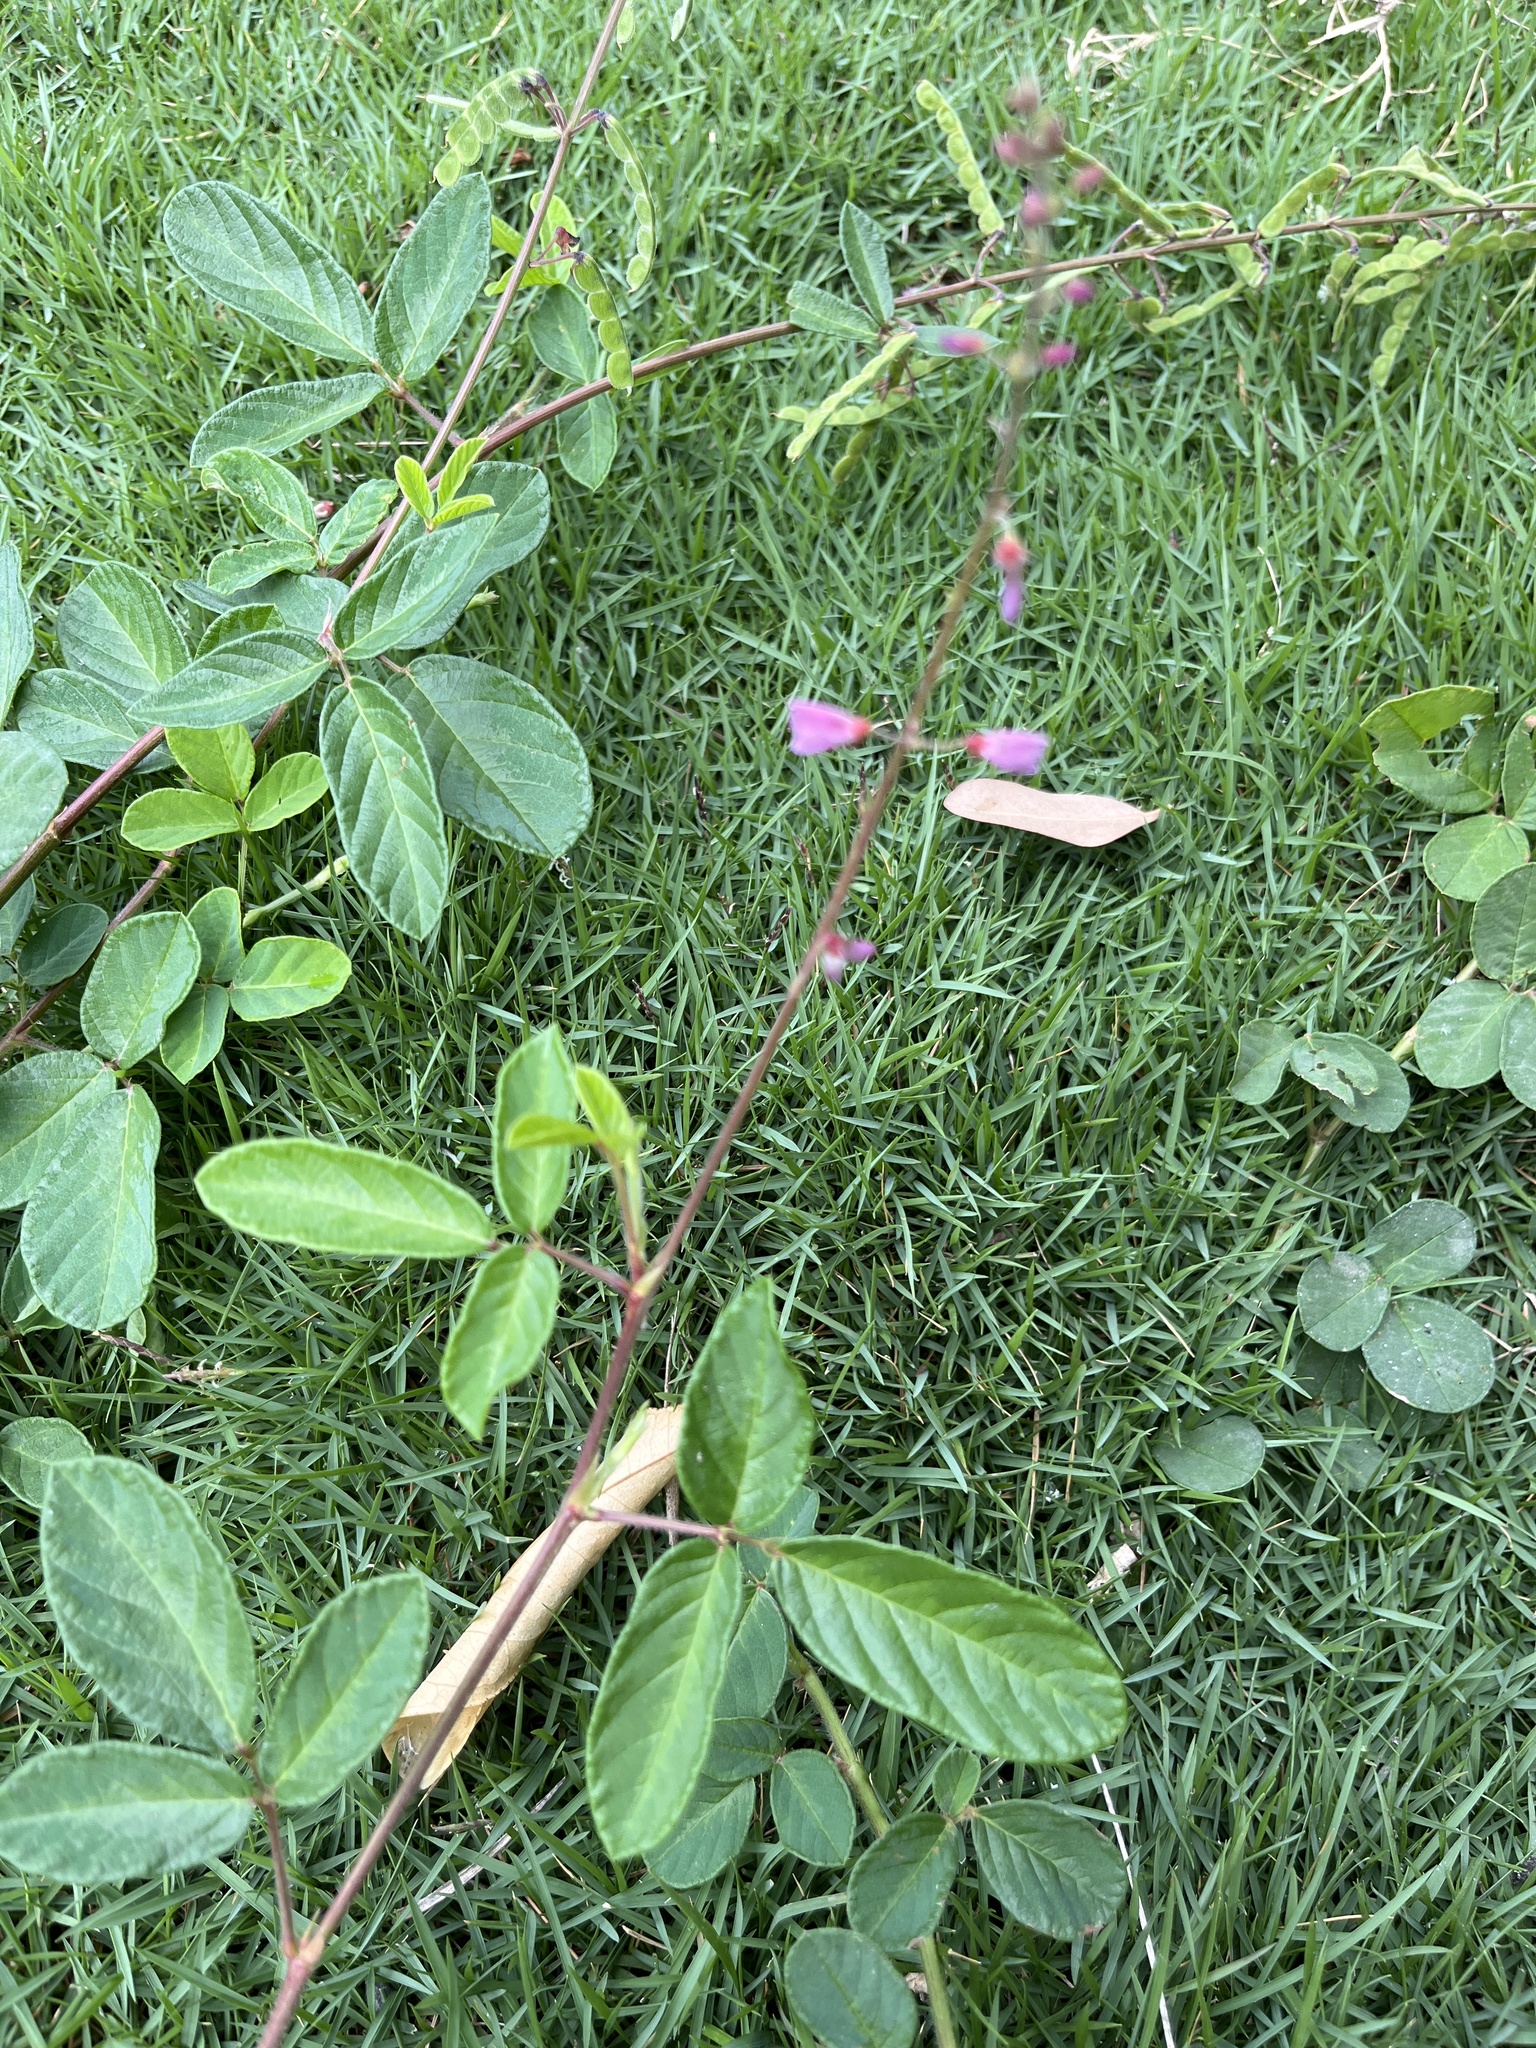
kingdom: Plantae
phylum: Tracheophyta
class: Magnoliopsida
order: Fabales
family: Fabaceae
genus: Desmodium
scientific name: Desmodium incanum
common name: Tickclover
